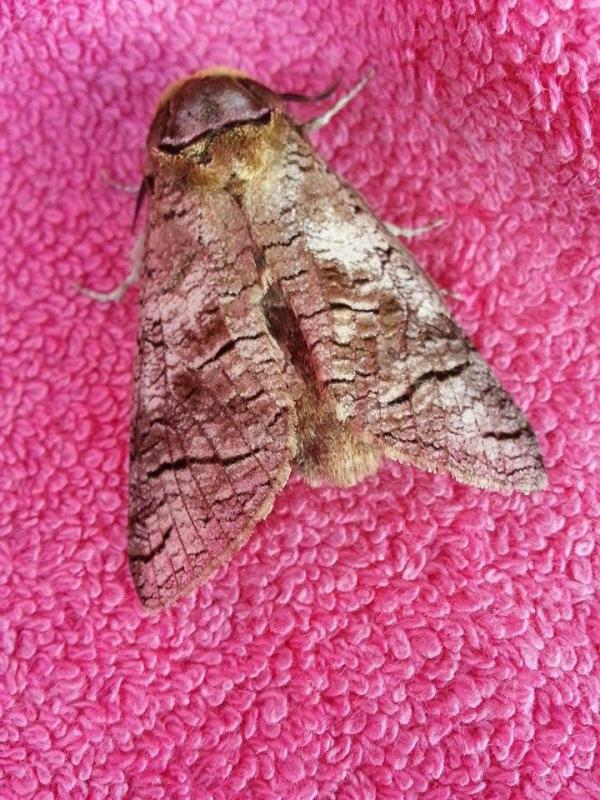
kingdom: Animalia
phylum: Arthropoda
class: Insecta
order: Lepidoptera
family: Cossidae
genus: Cossus
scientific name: Cossus cossus
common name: Goat moth
